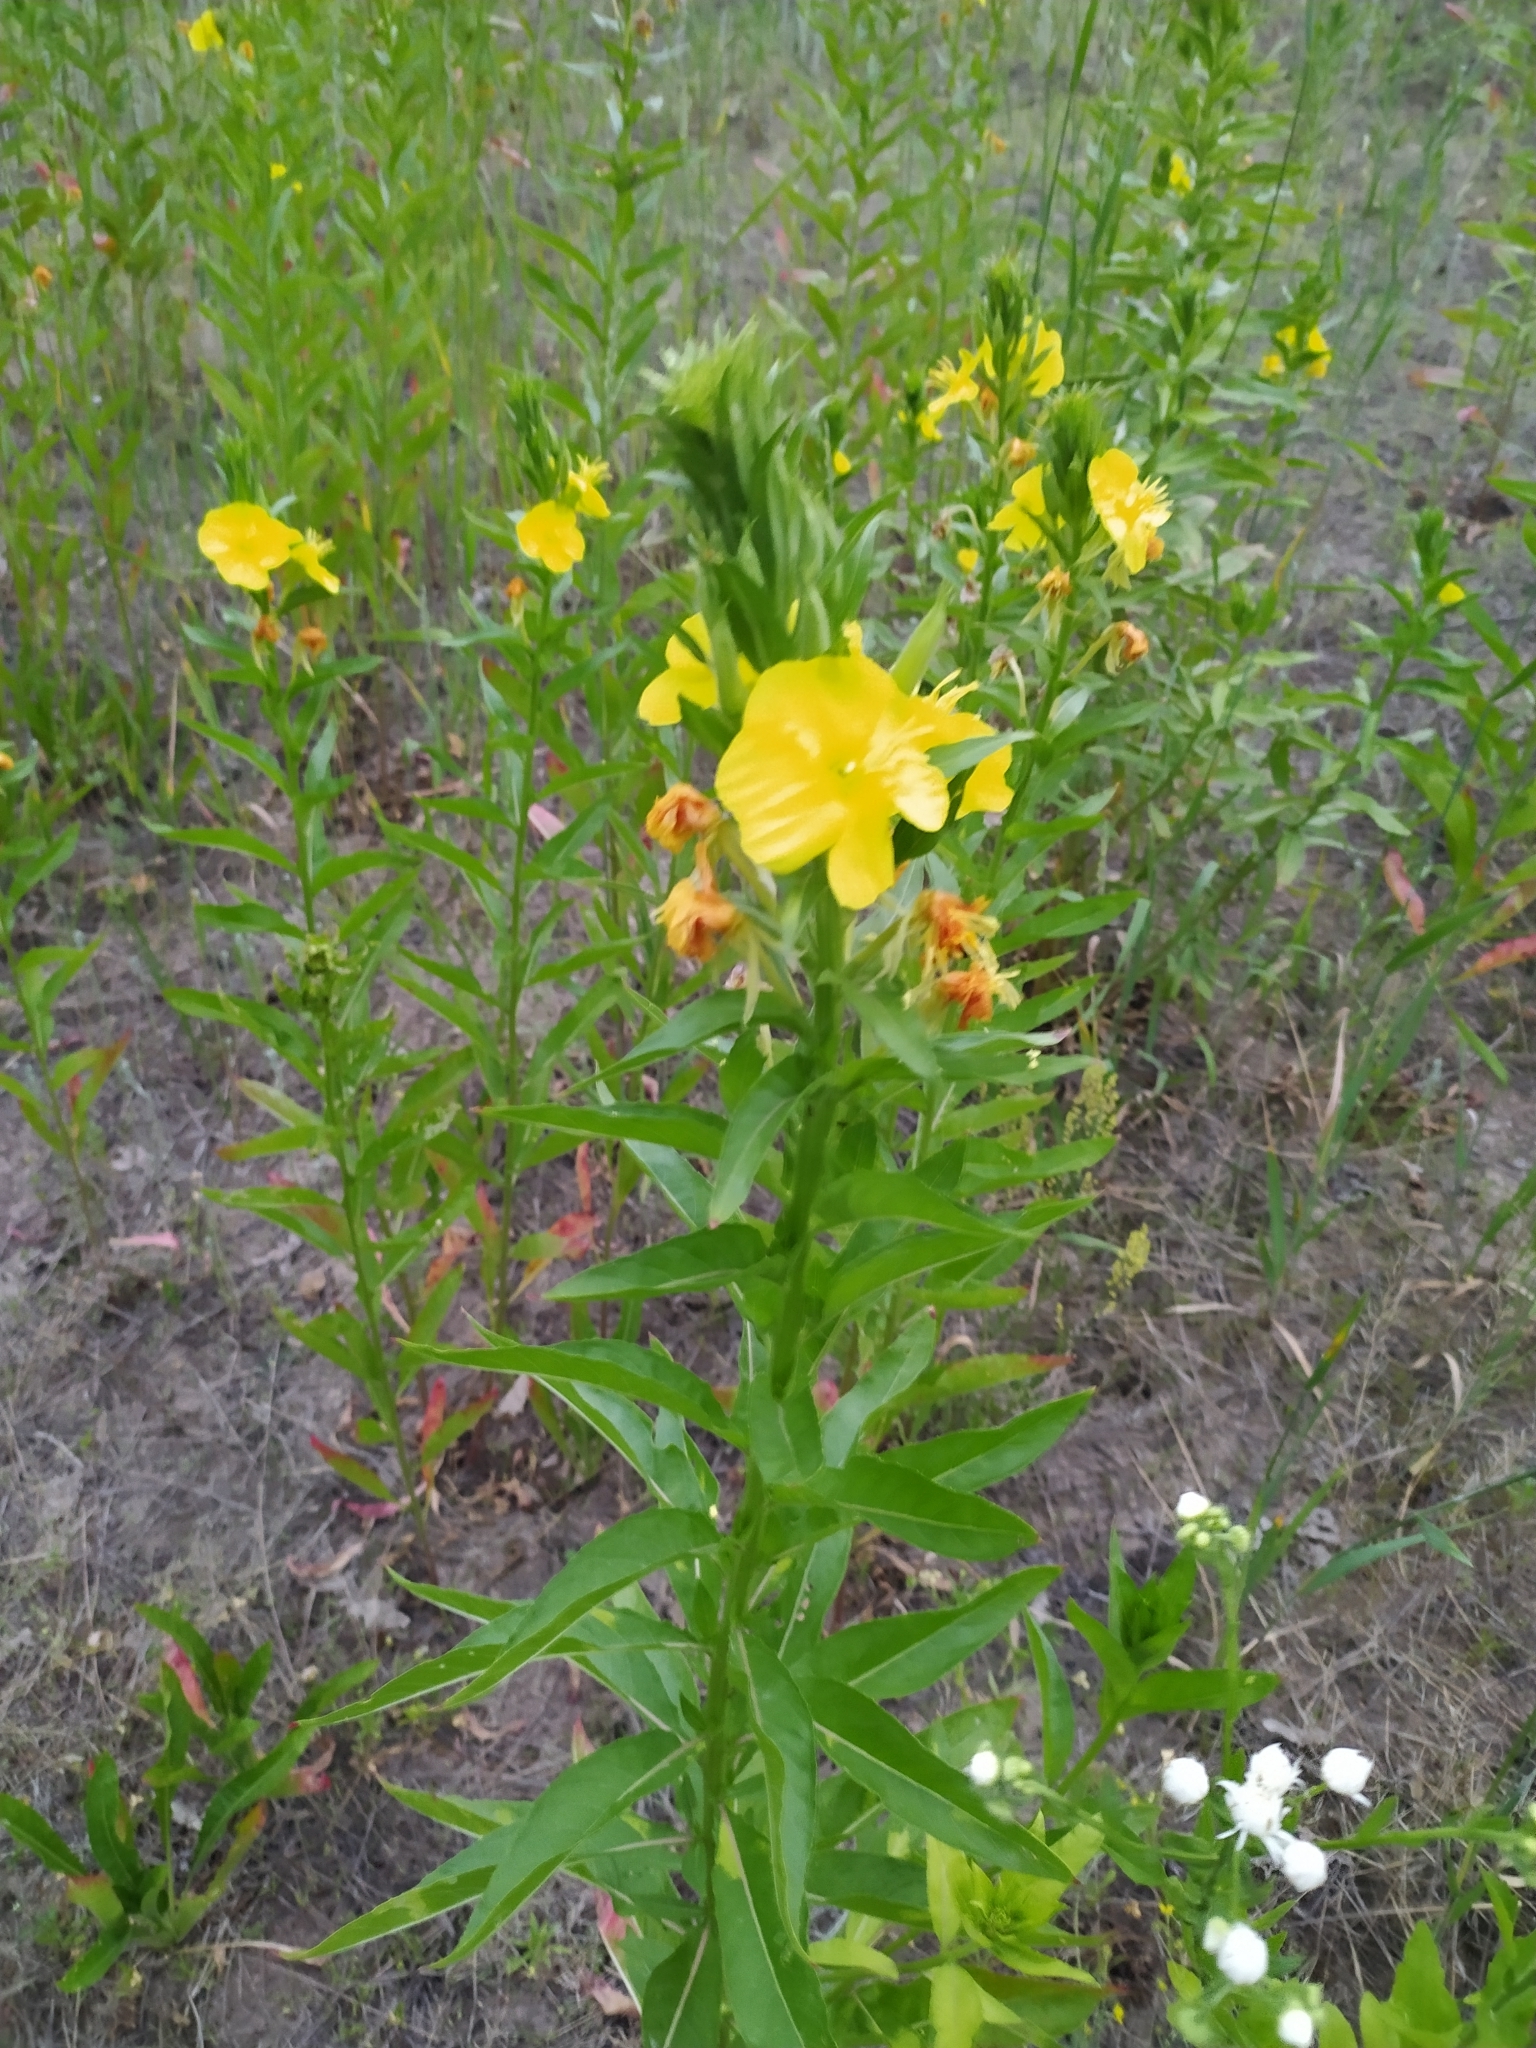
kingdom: Plantae
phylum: Tracheophyta
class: Magnoliopsida
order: Myrtales
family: Onagraceae
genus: Oenothera
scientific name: Oenothera biennis
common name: Common evening-primrose
